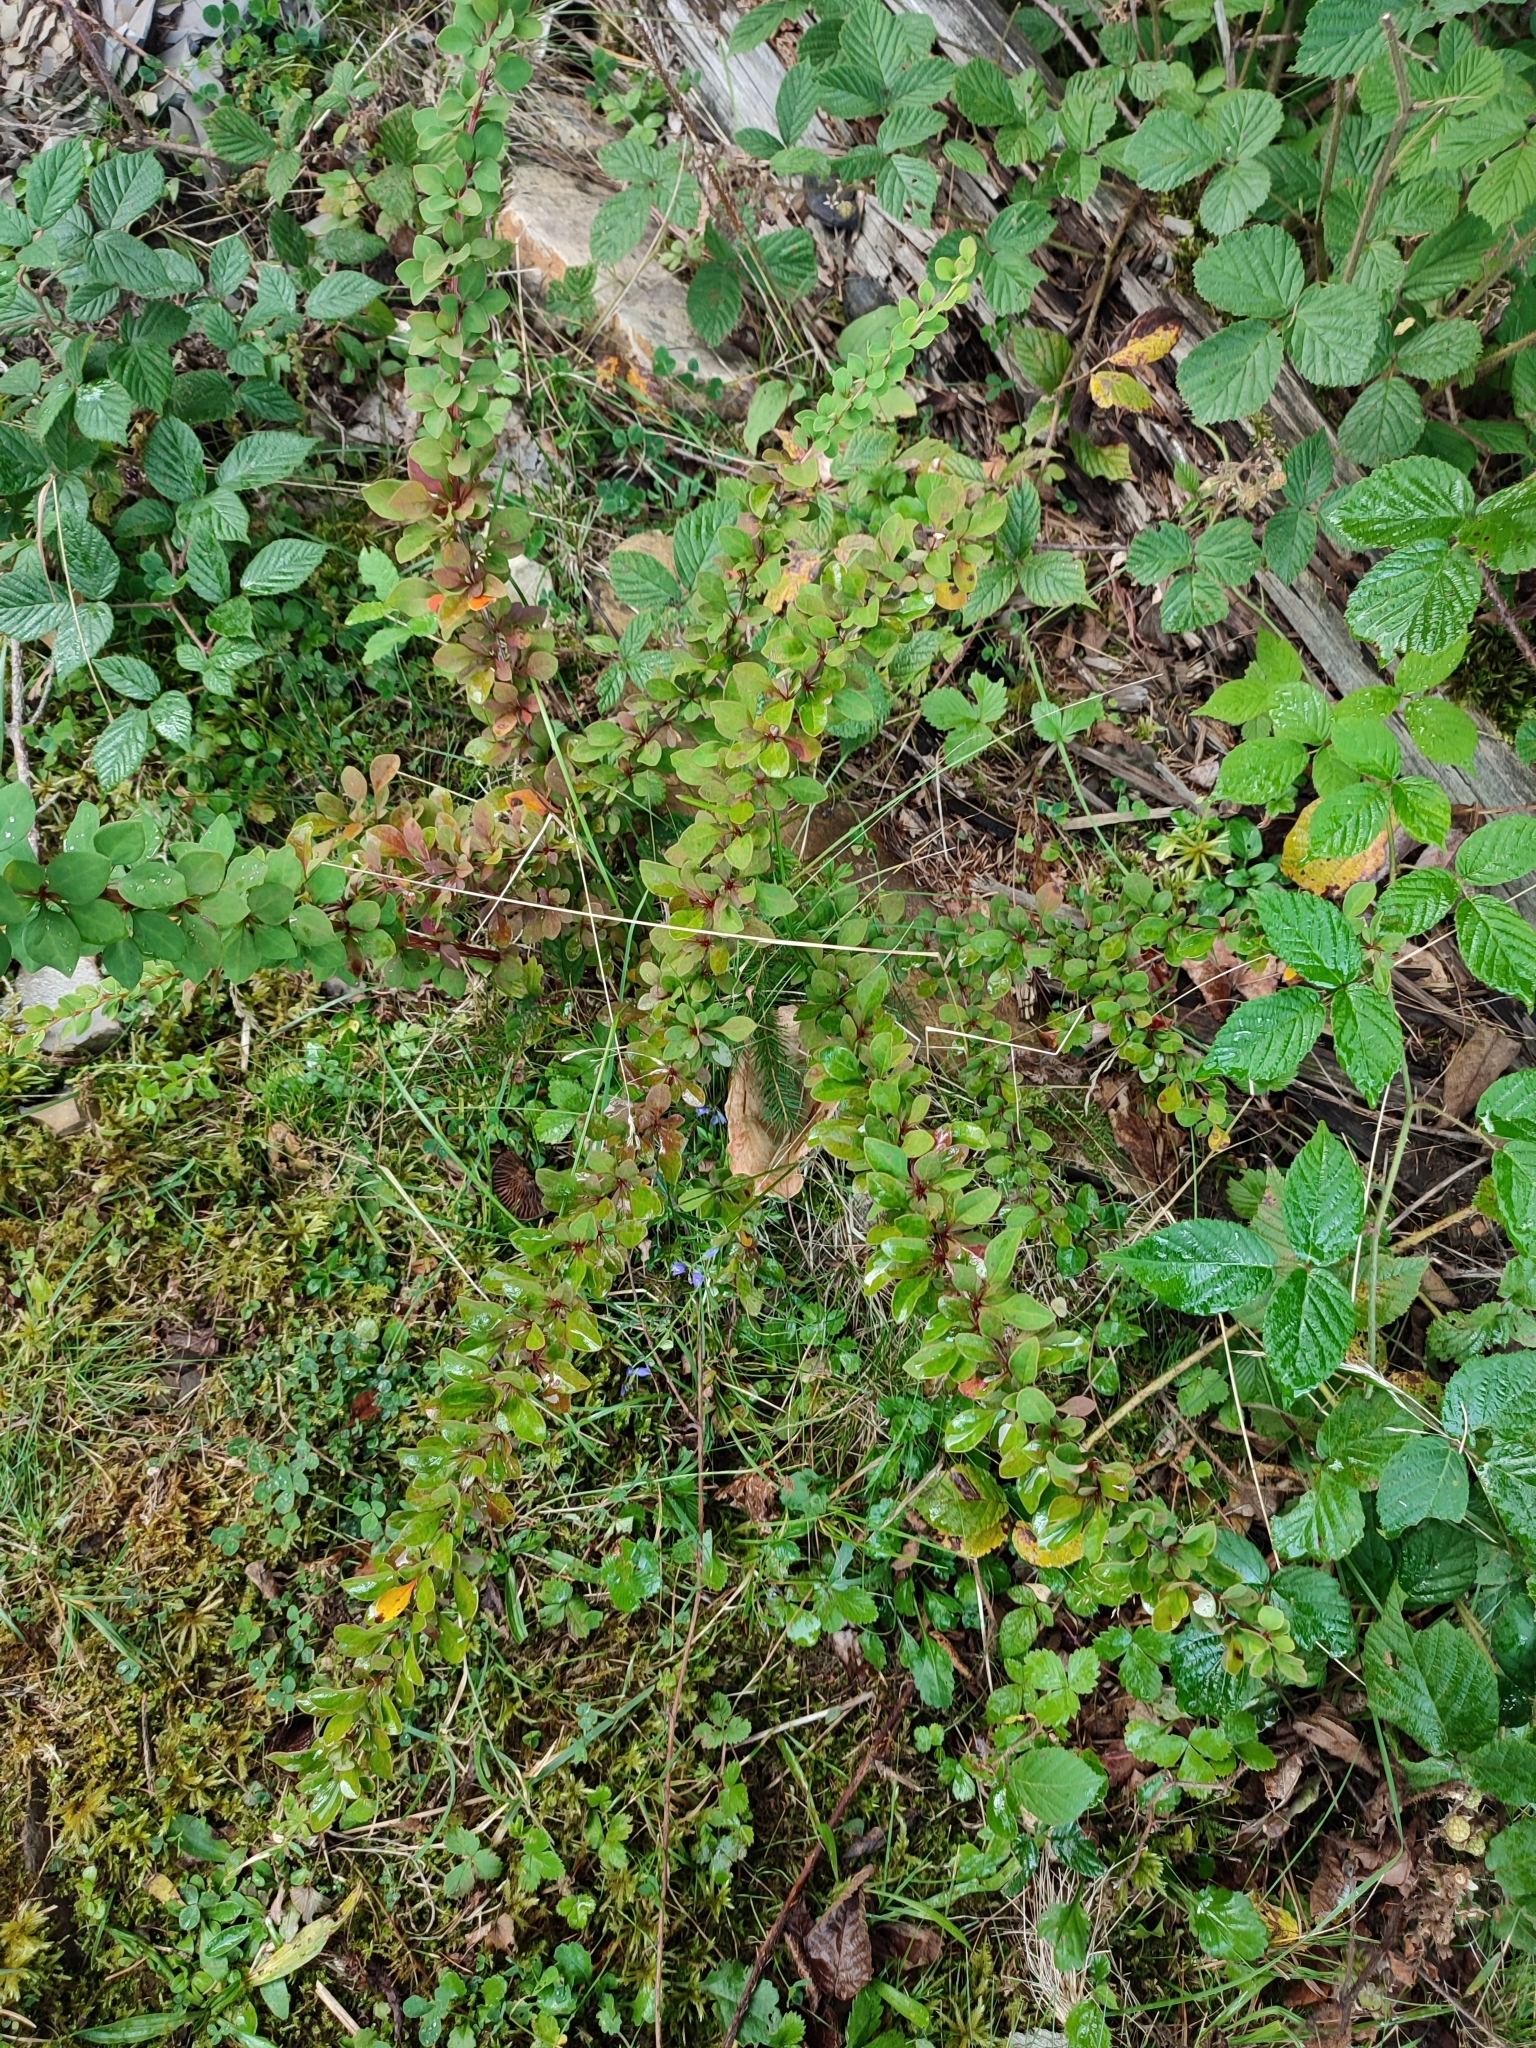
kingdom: Plantae
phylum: Tracheophyta
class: Magnoliopsida
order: Ranunculales
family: Berberidaceae
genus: Berberis
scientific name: Berberis thunbergii
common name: Japanese barberry
